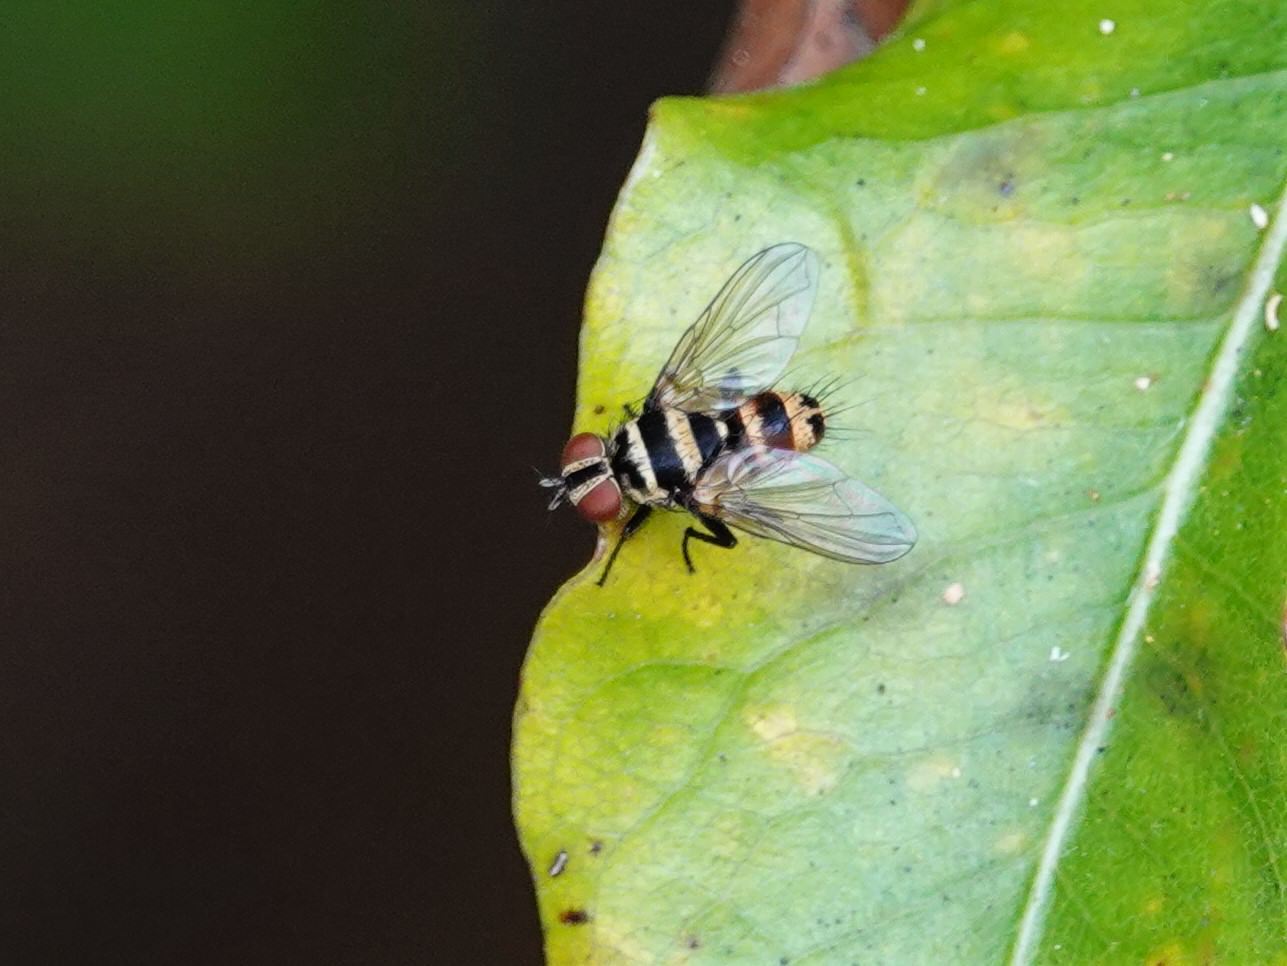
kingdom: Animalia
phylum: Arthropoda
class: Insecta
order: Diptera
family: Tachinidae
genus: Trigonospila
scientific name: Trigonospila brevifacies
